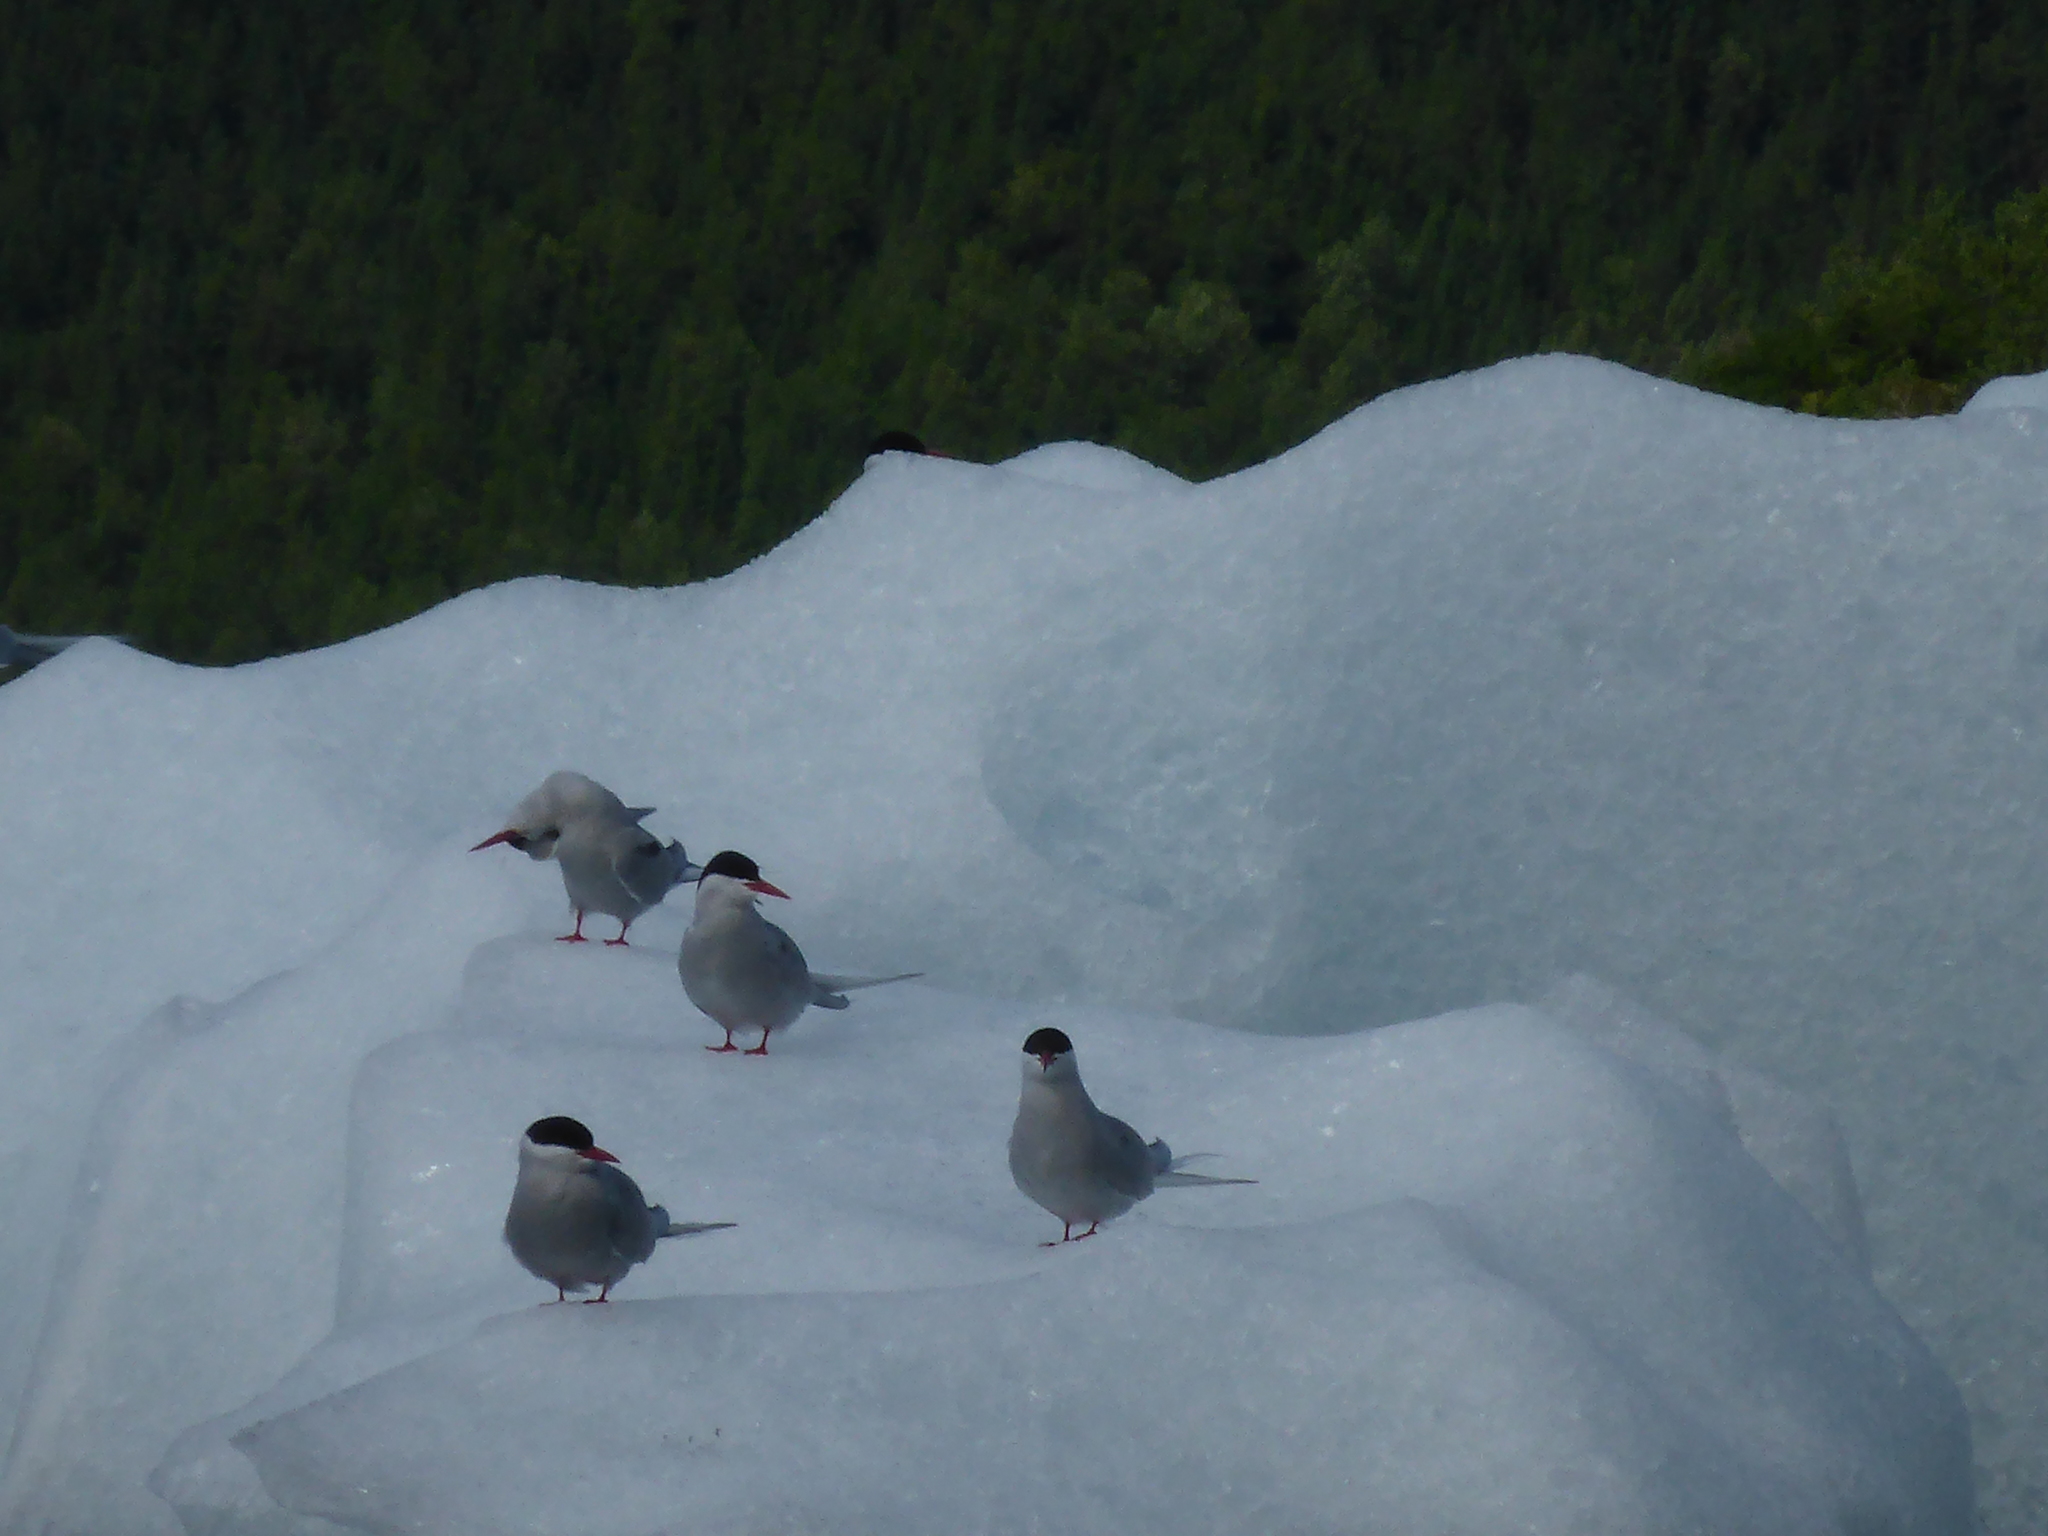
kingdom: Animalia
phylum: Chordata
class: Aves
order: Charadriiformes
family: Laridae
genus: Sterna
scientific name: Sterna paradisaea
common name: Arctic tern
